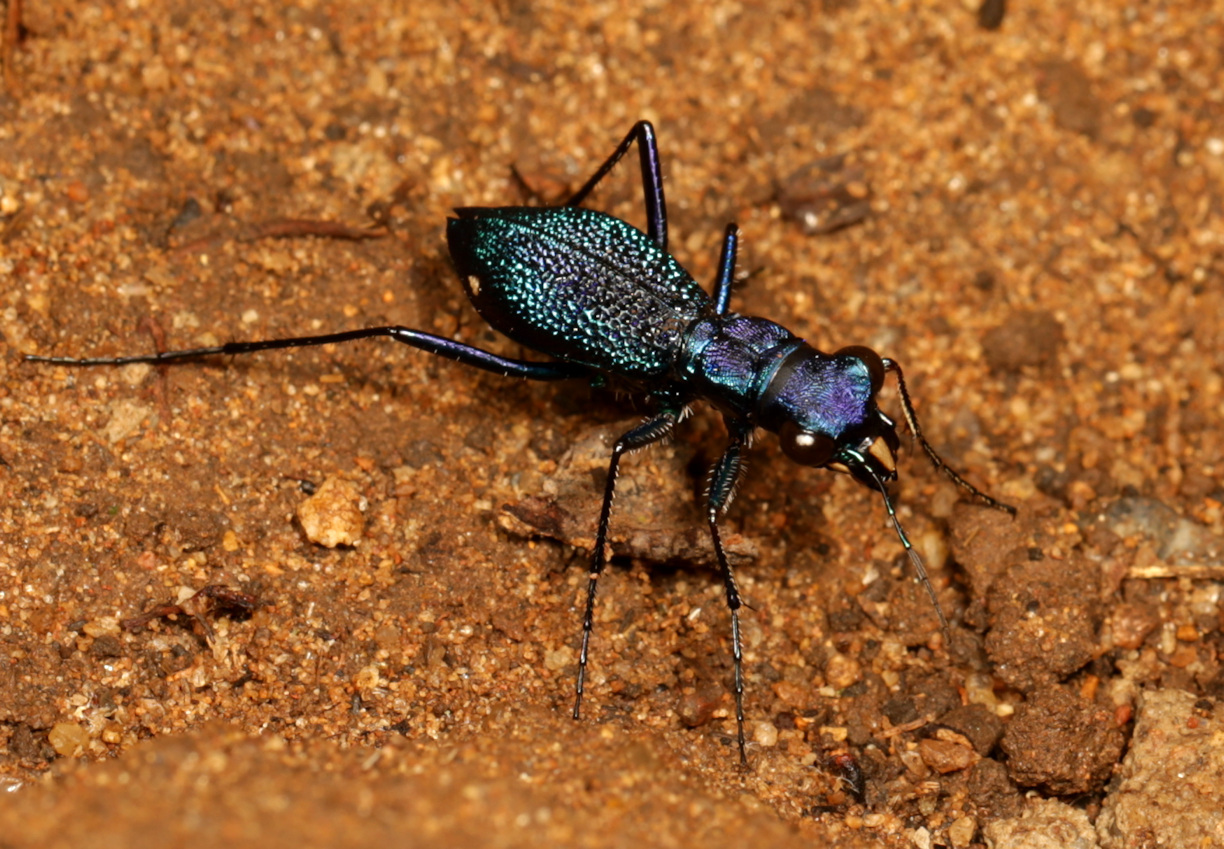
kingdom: Animalia
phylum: Arthropoda
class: Insecta
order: Coleoptera
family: Carabidae
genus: Dromica
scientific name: Dromica kolbei
